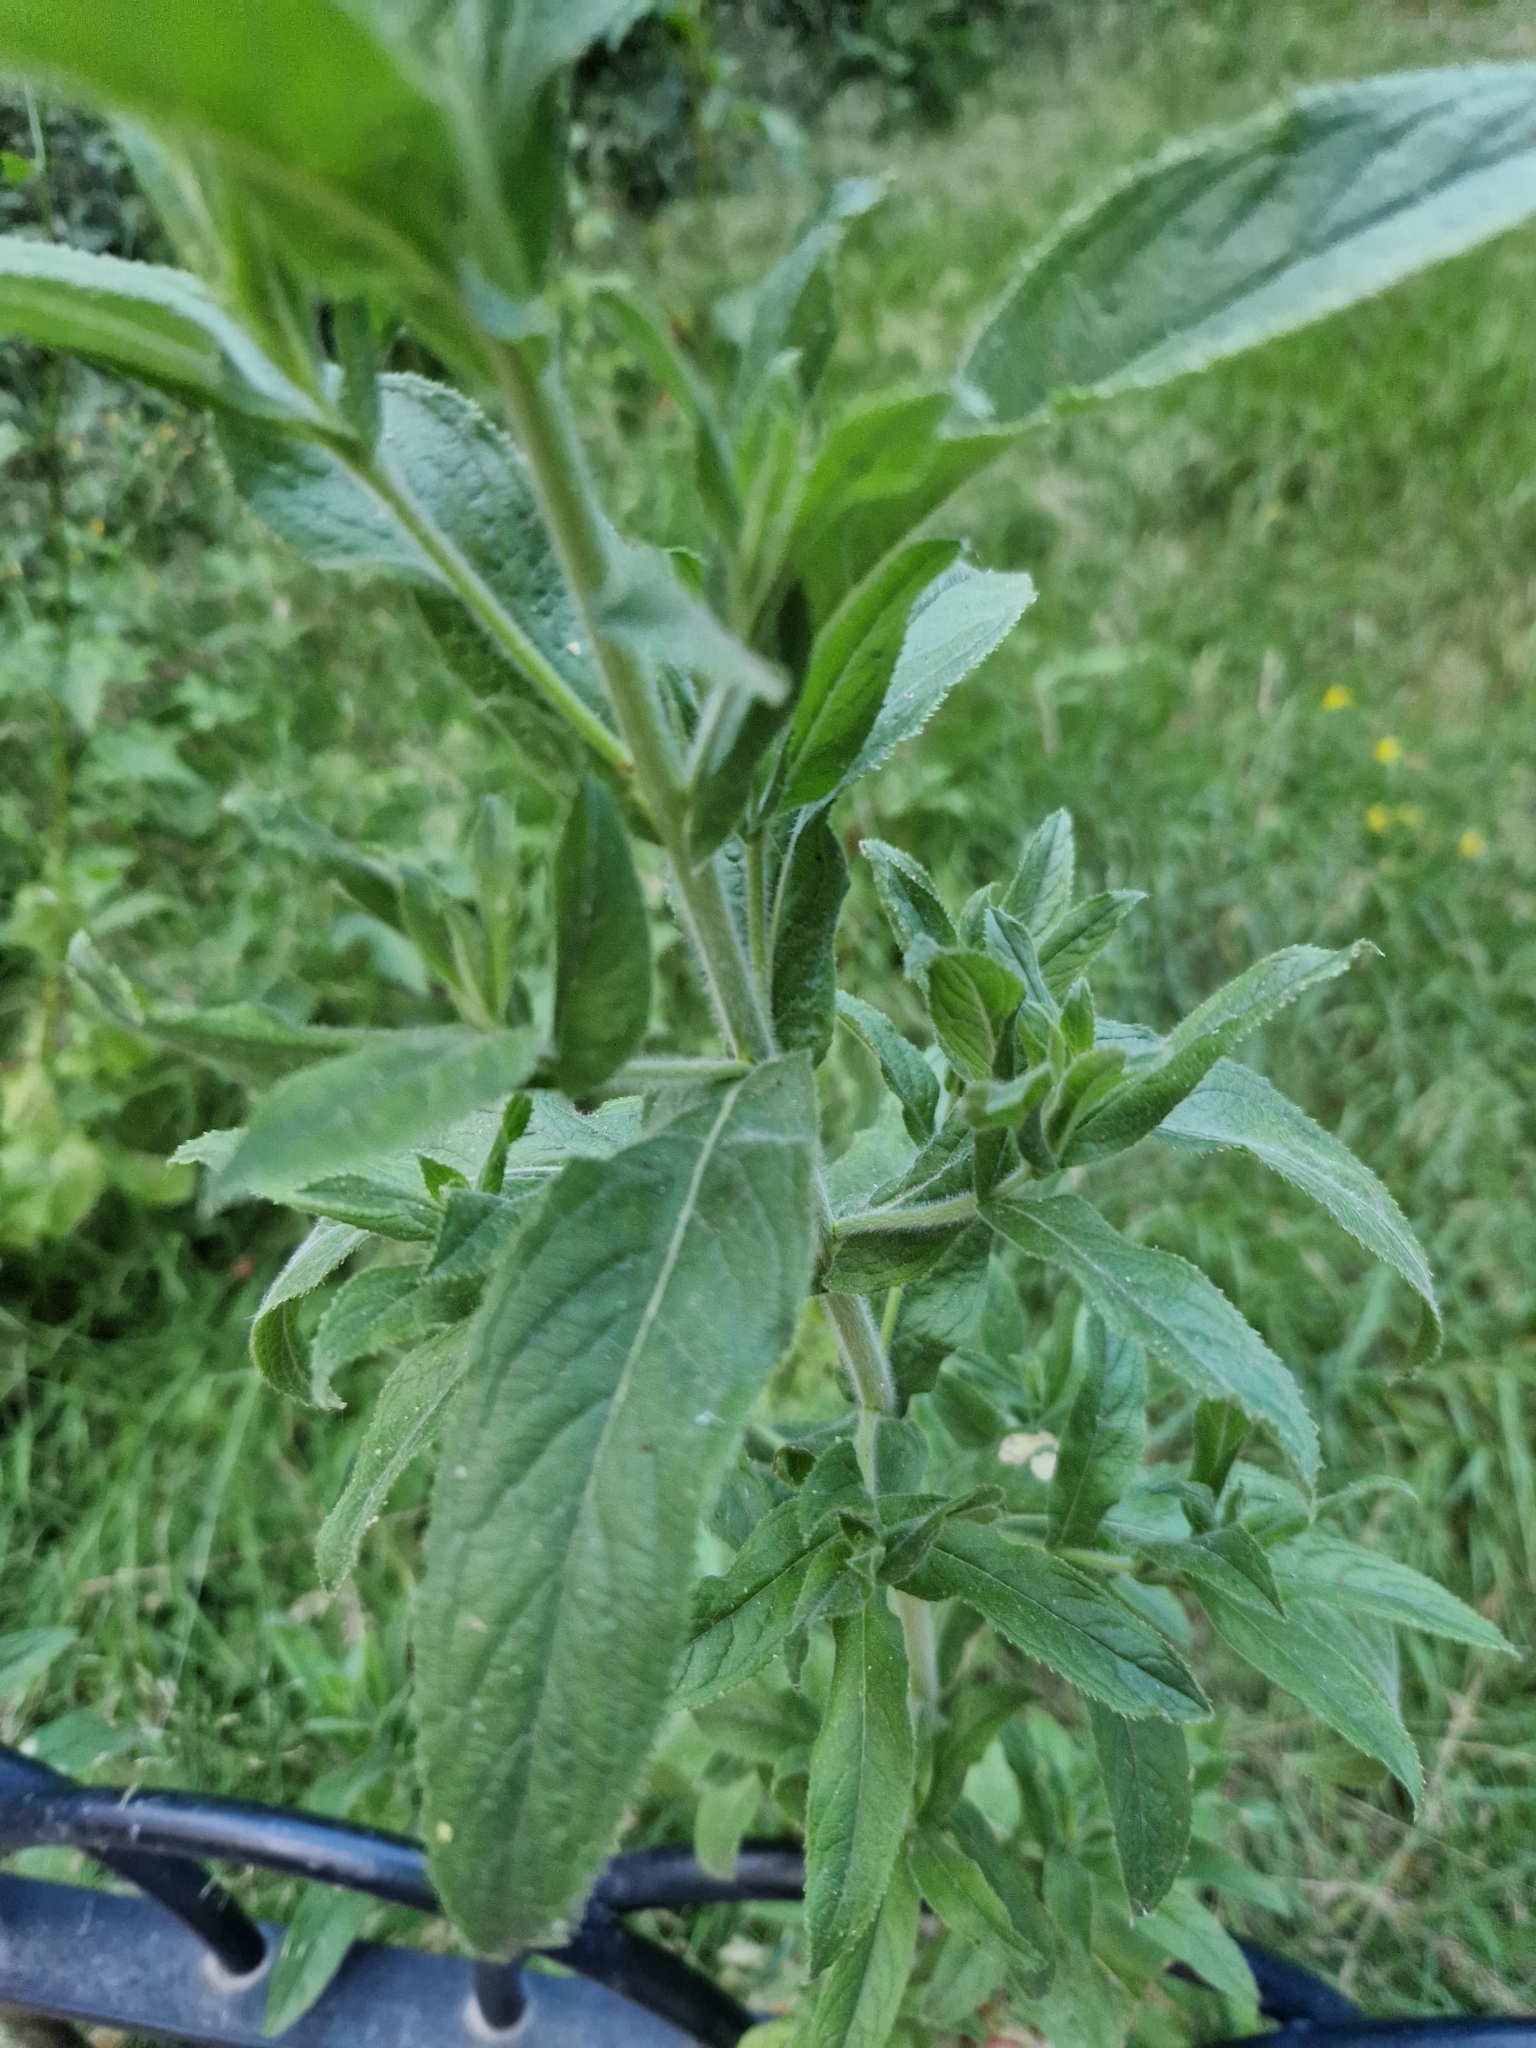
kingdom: Plantae
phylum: Tracheophyta
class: Magnoliopsida
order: Myrtales
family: Onagraceae
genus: Epilobium
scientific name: Epilobium hirsutum
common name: Great willowherb
